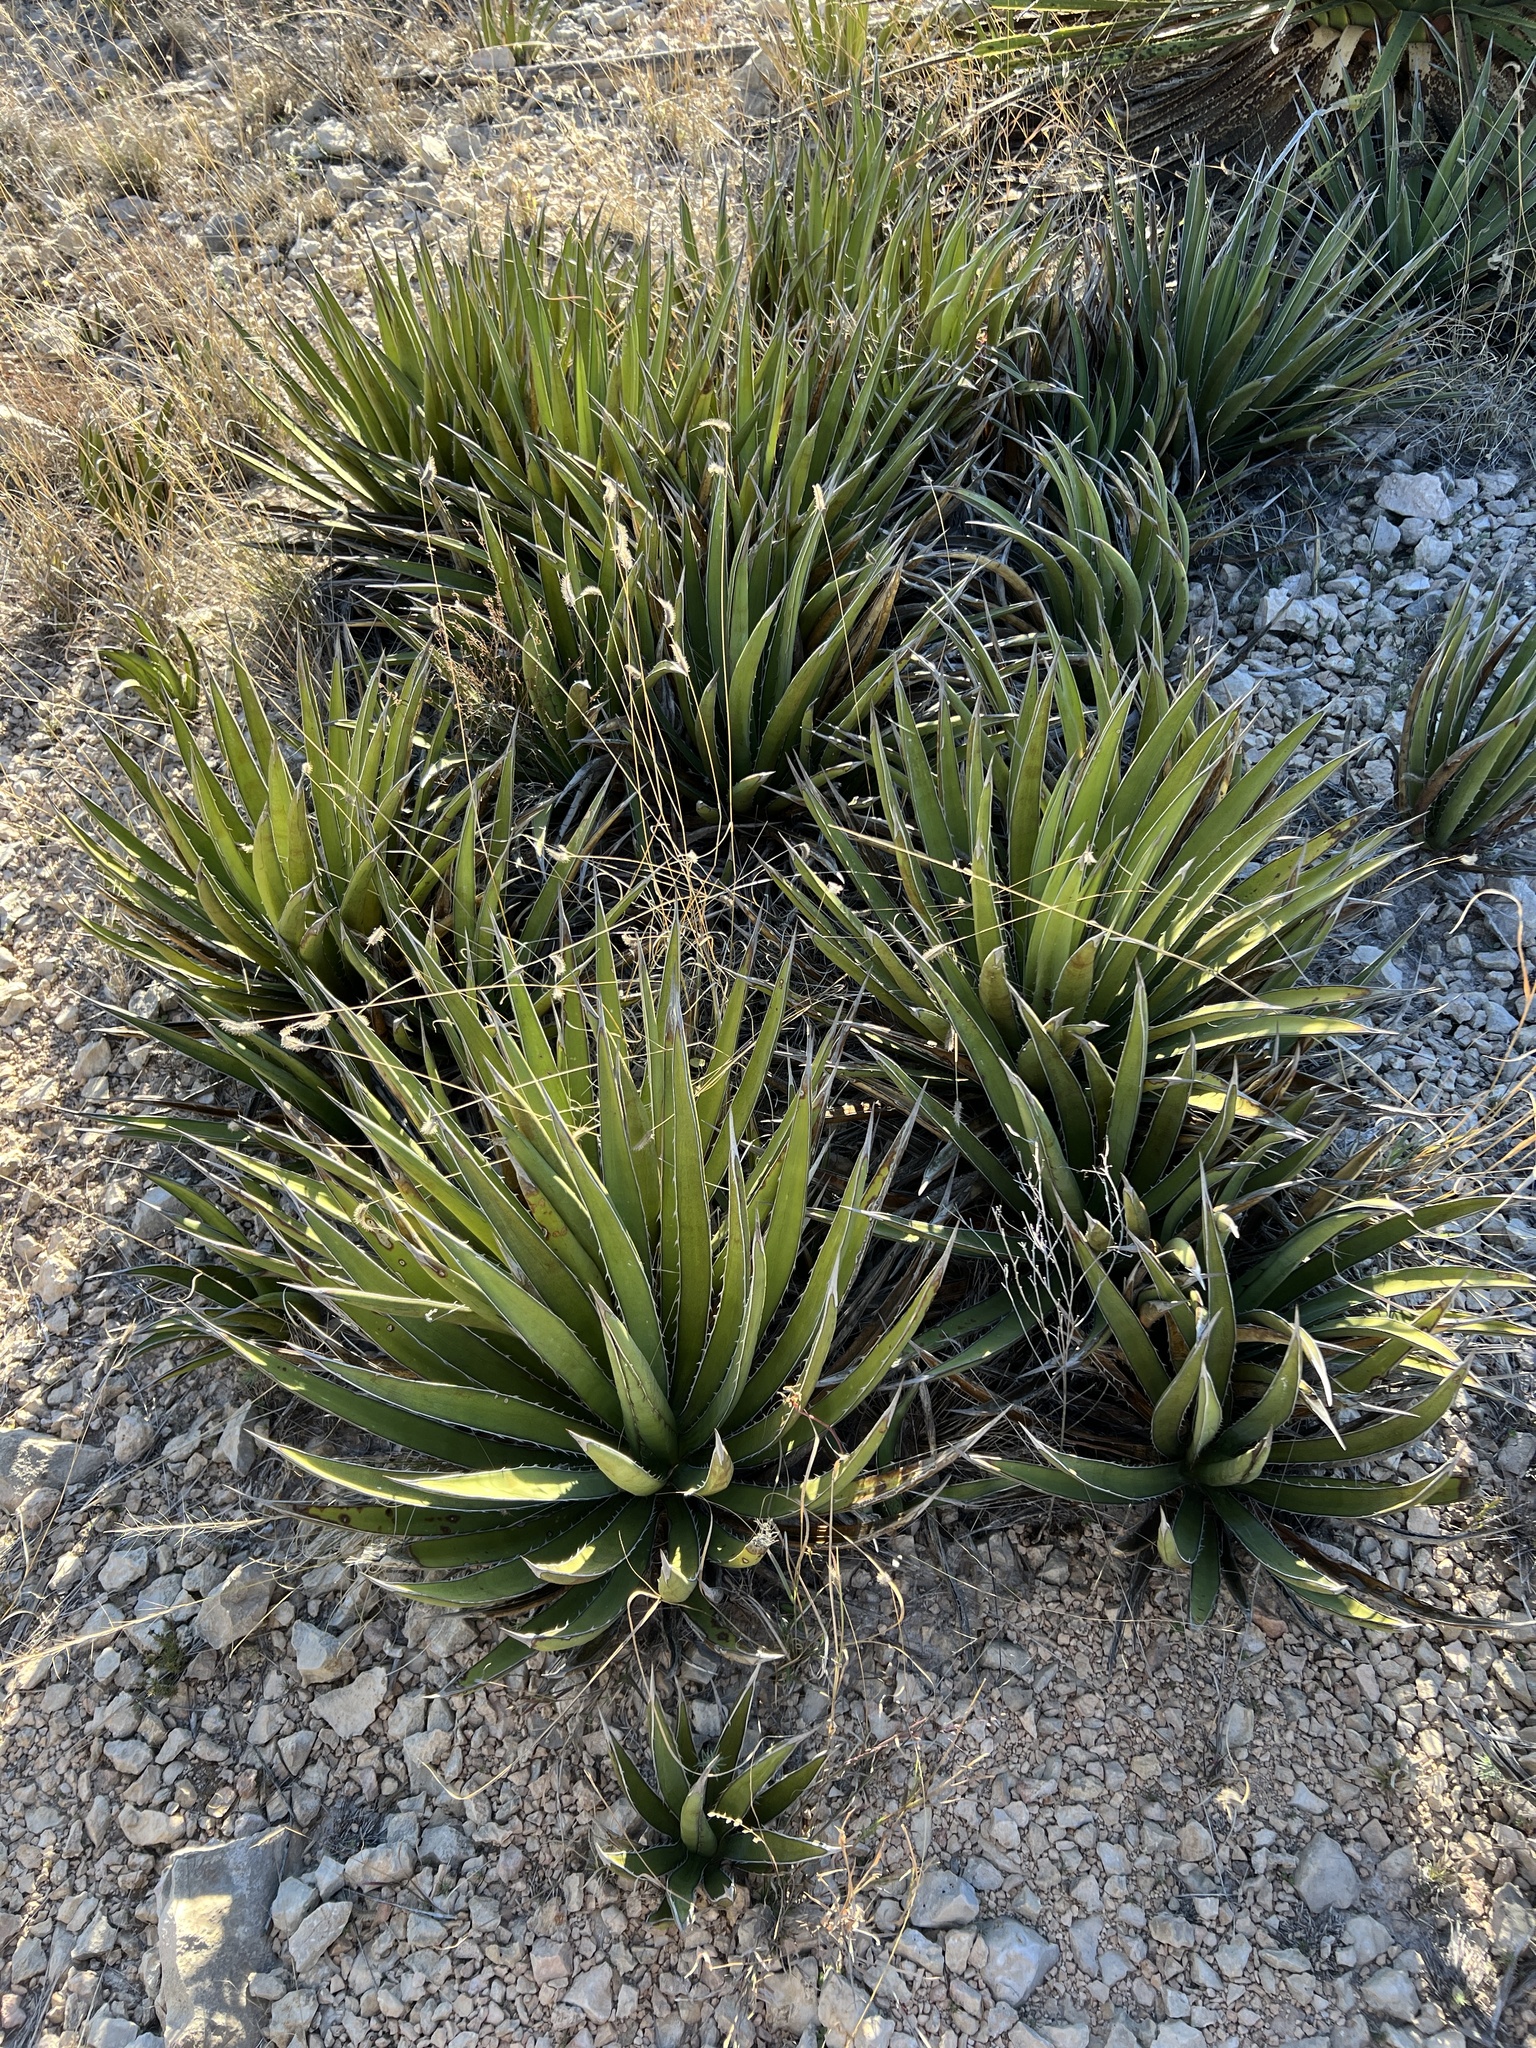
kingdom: Plantae
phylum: Tracheophyta
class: Liliopsida
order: Asparagales
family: Asparagaceae
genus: Agave
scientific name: Agave lechuguilla
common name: Lecheguilla agave
